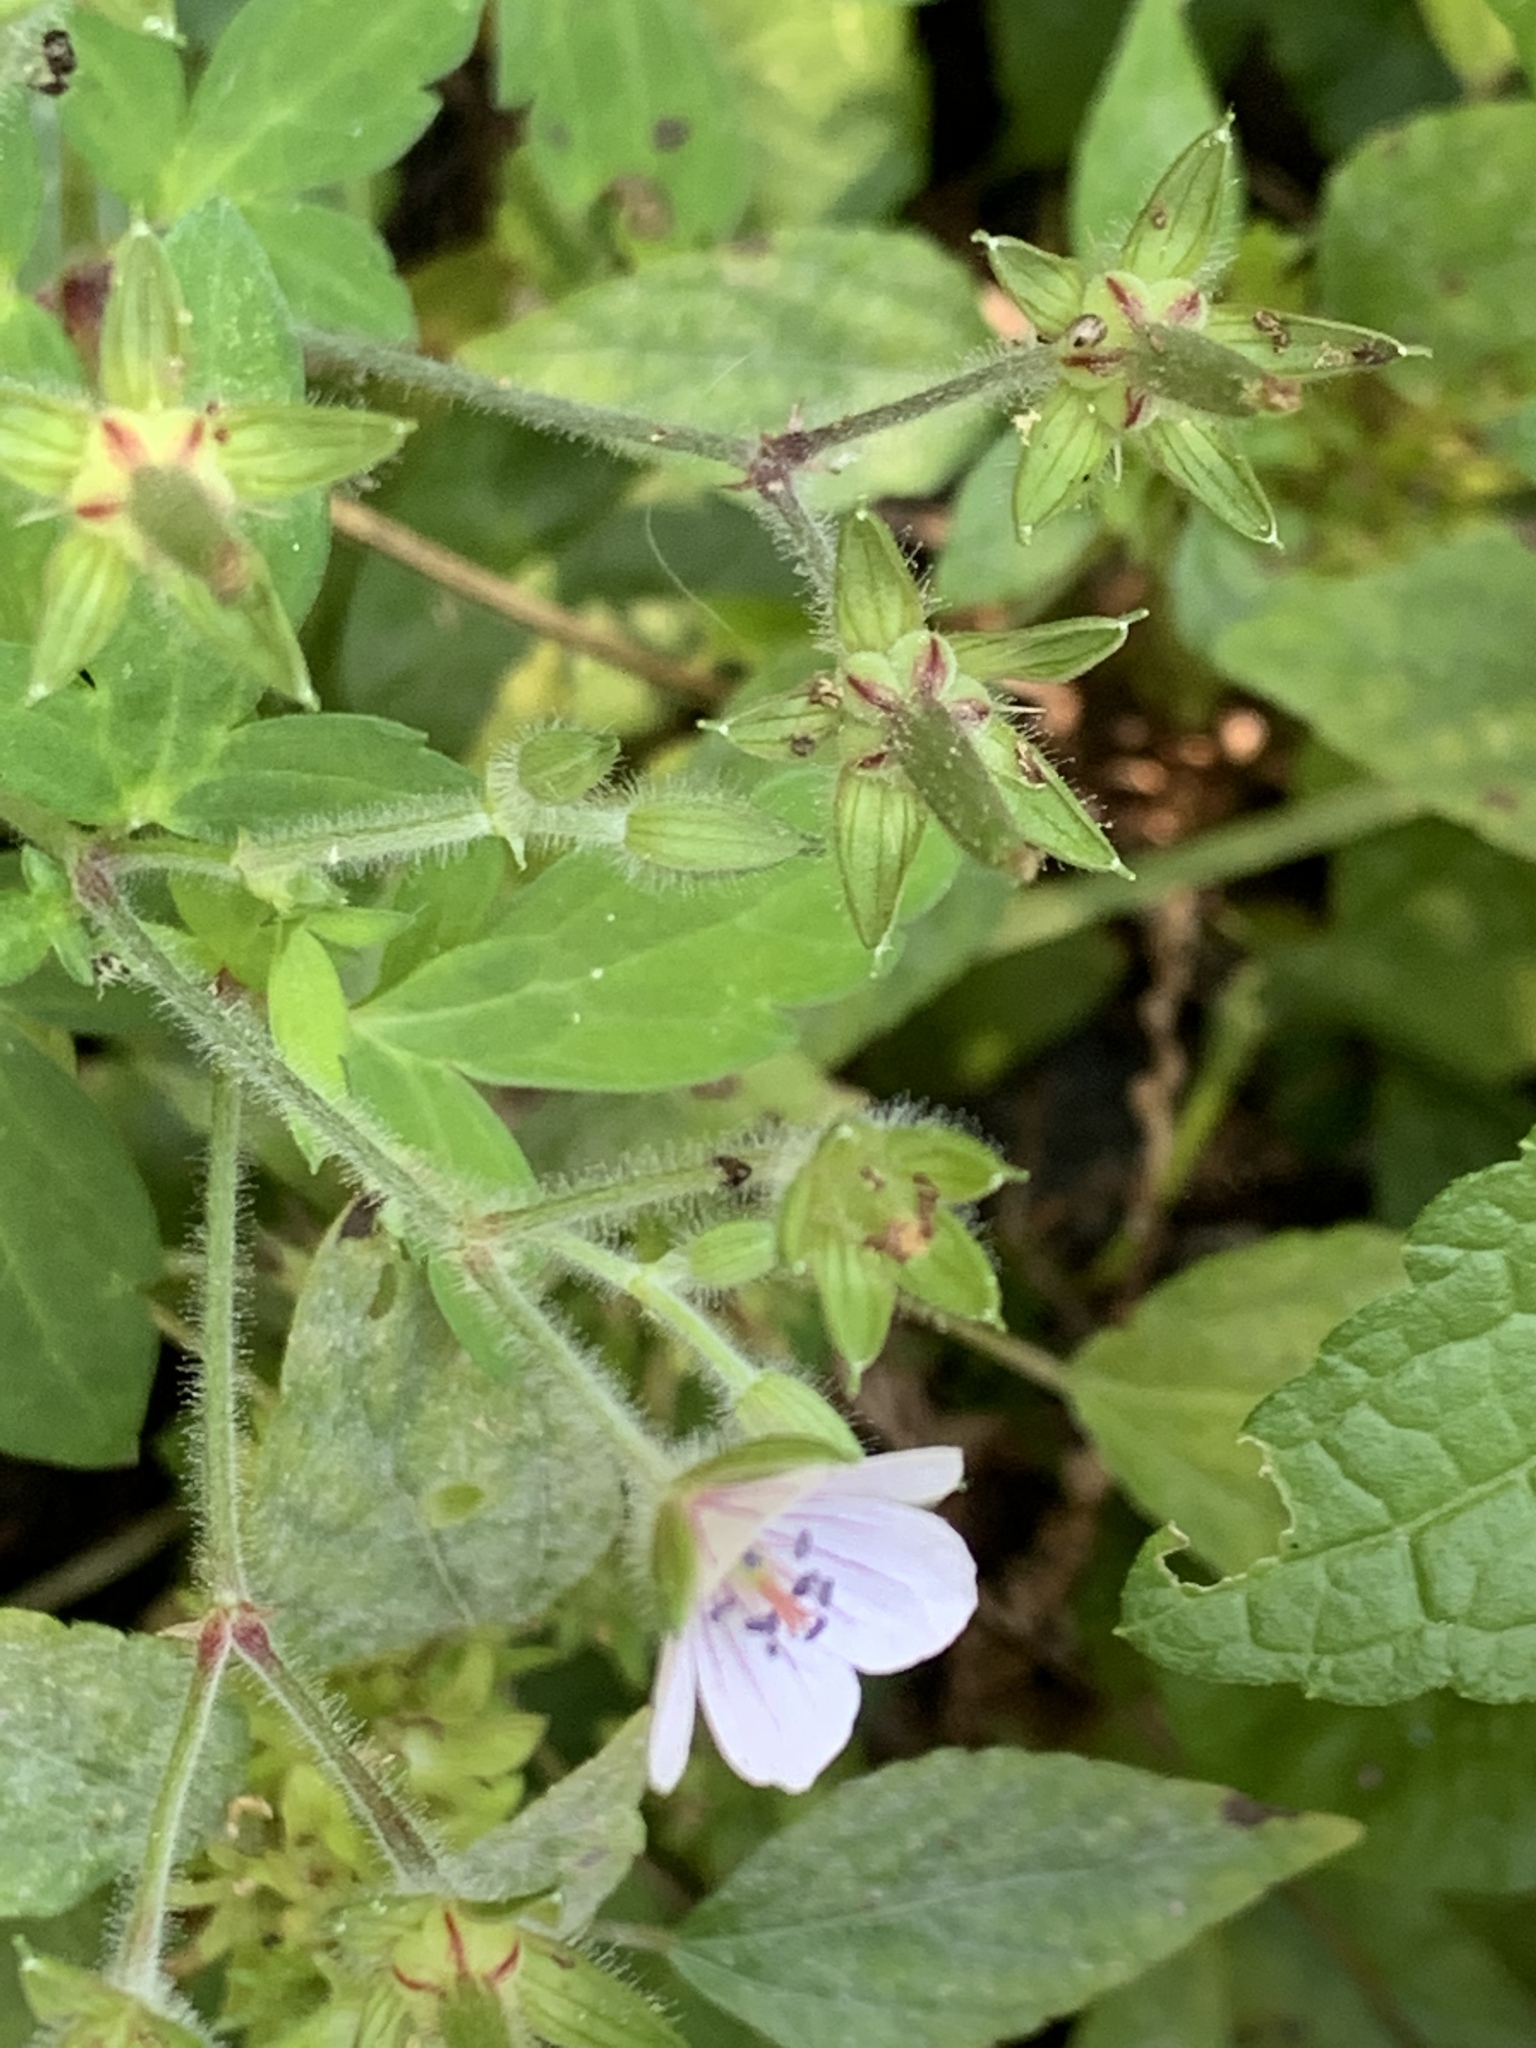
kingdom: Plantae
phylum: Tracheophyta
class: Magnoliopsida
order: Geraniales
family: Geraniaceae
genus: Geranium
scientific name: Geranium thunbergii
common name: Dewdrop crane's-bill
